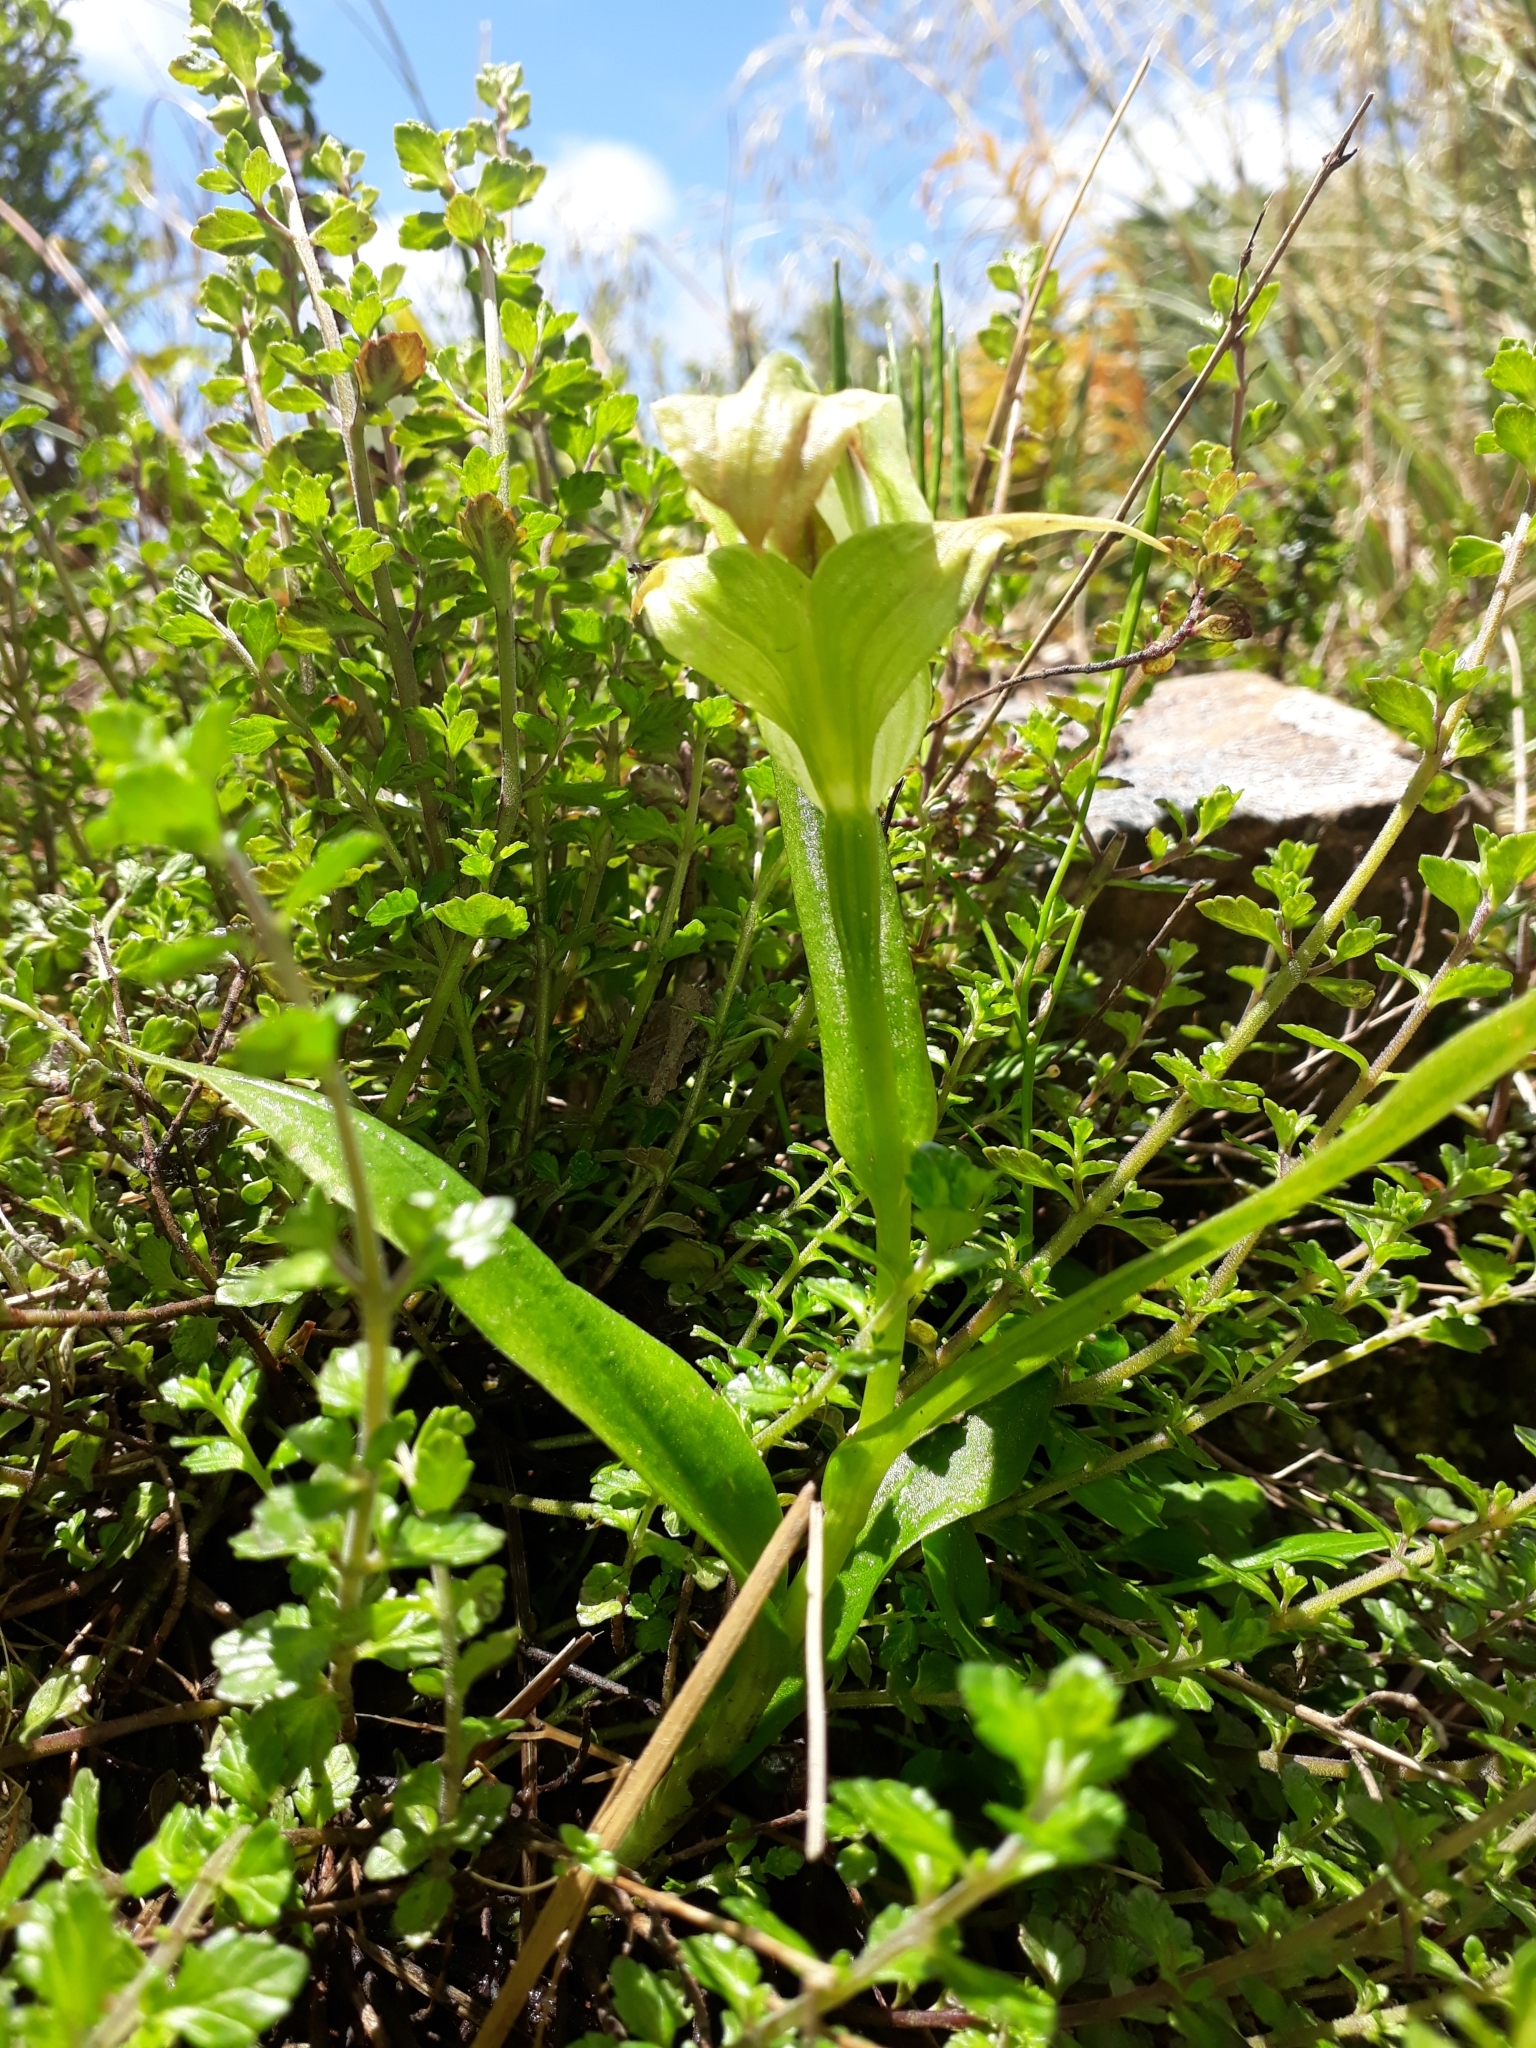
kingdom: Plantae
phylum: Tracheophyta
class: Liliopsida
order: Asparagales
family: Orchidaceae
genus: Pterostylis
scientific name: Pterostylis patens
